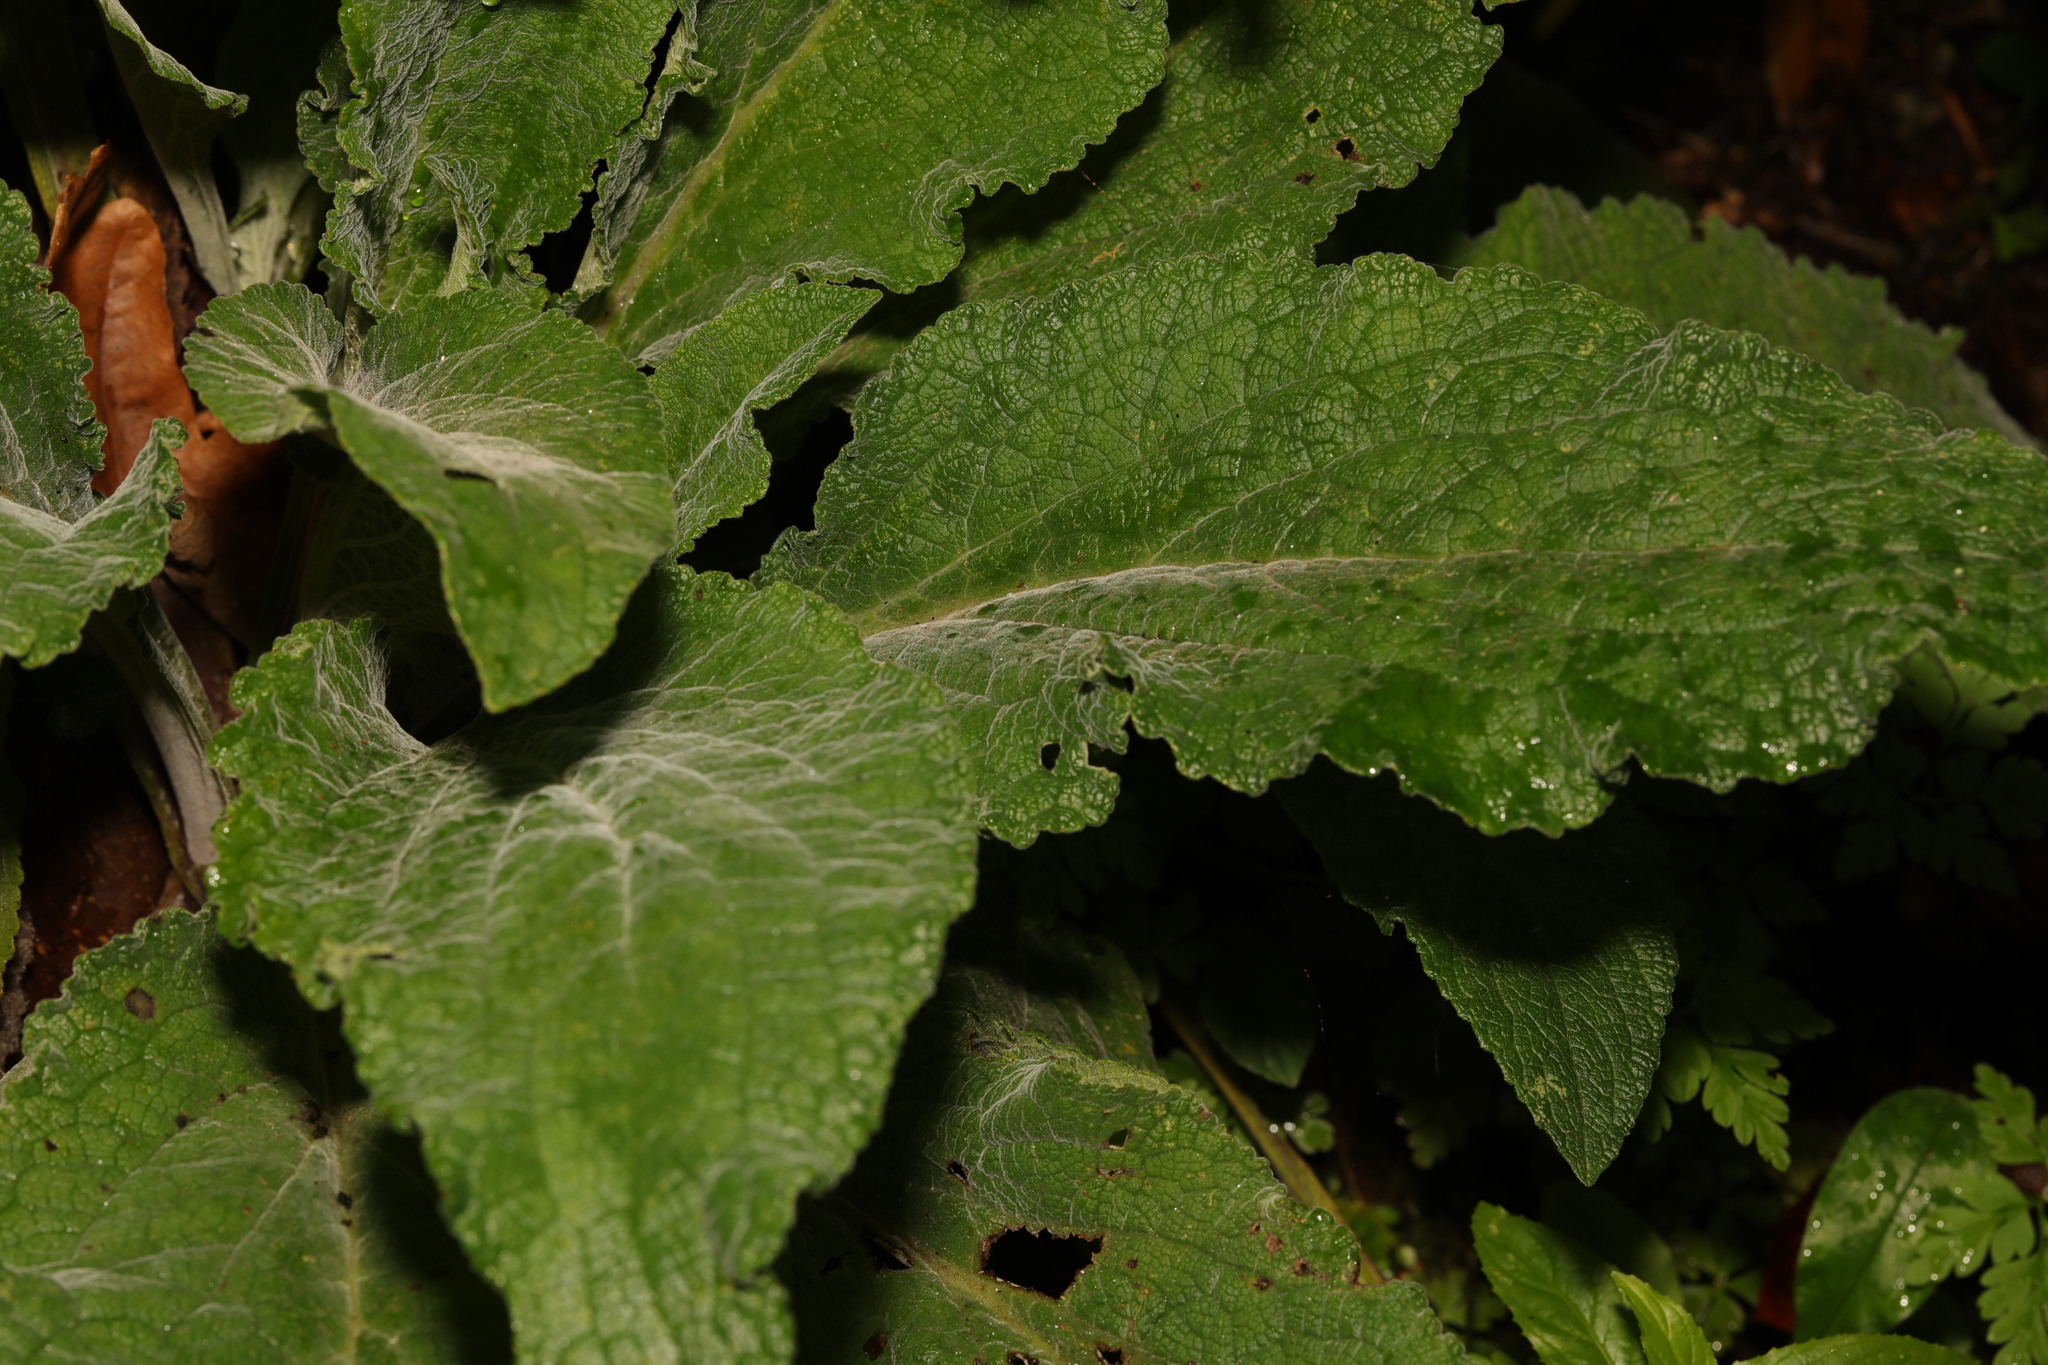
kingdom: Plantae
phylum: Tracheophyta
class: Magnoliopsida
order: Lamiales
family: Plantaginaceae
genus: Digitalis
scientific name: Digitalis purpurea
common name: Foxglove
